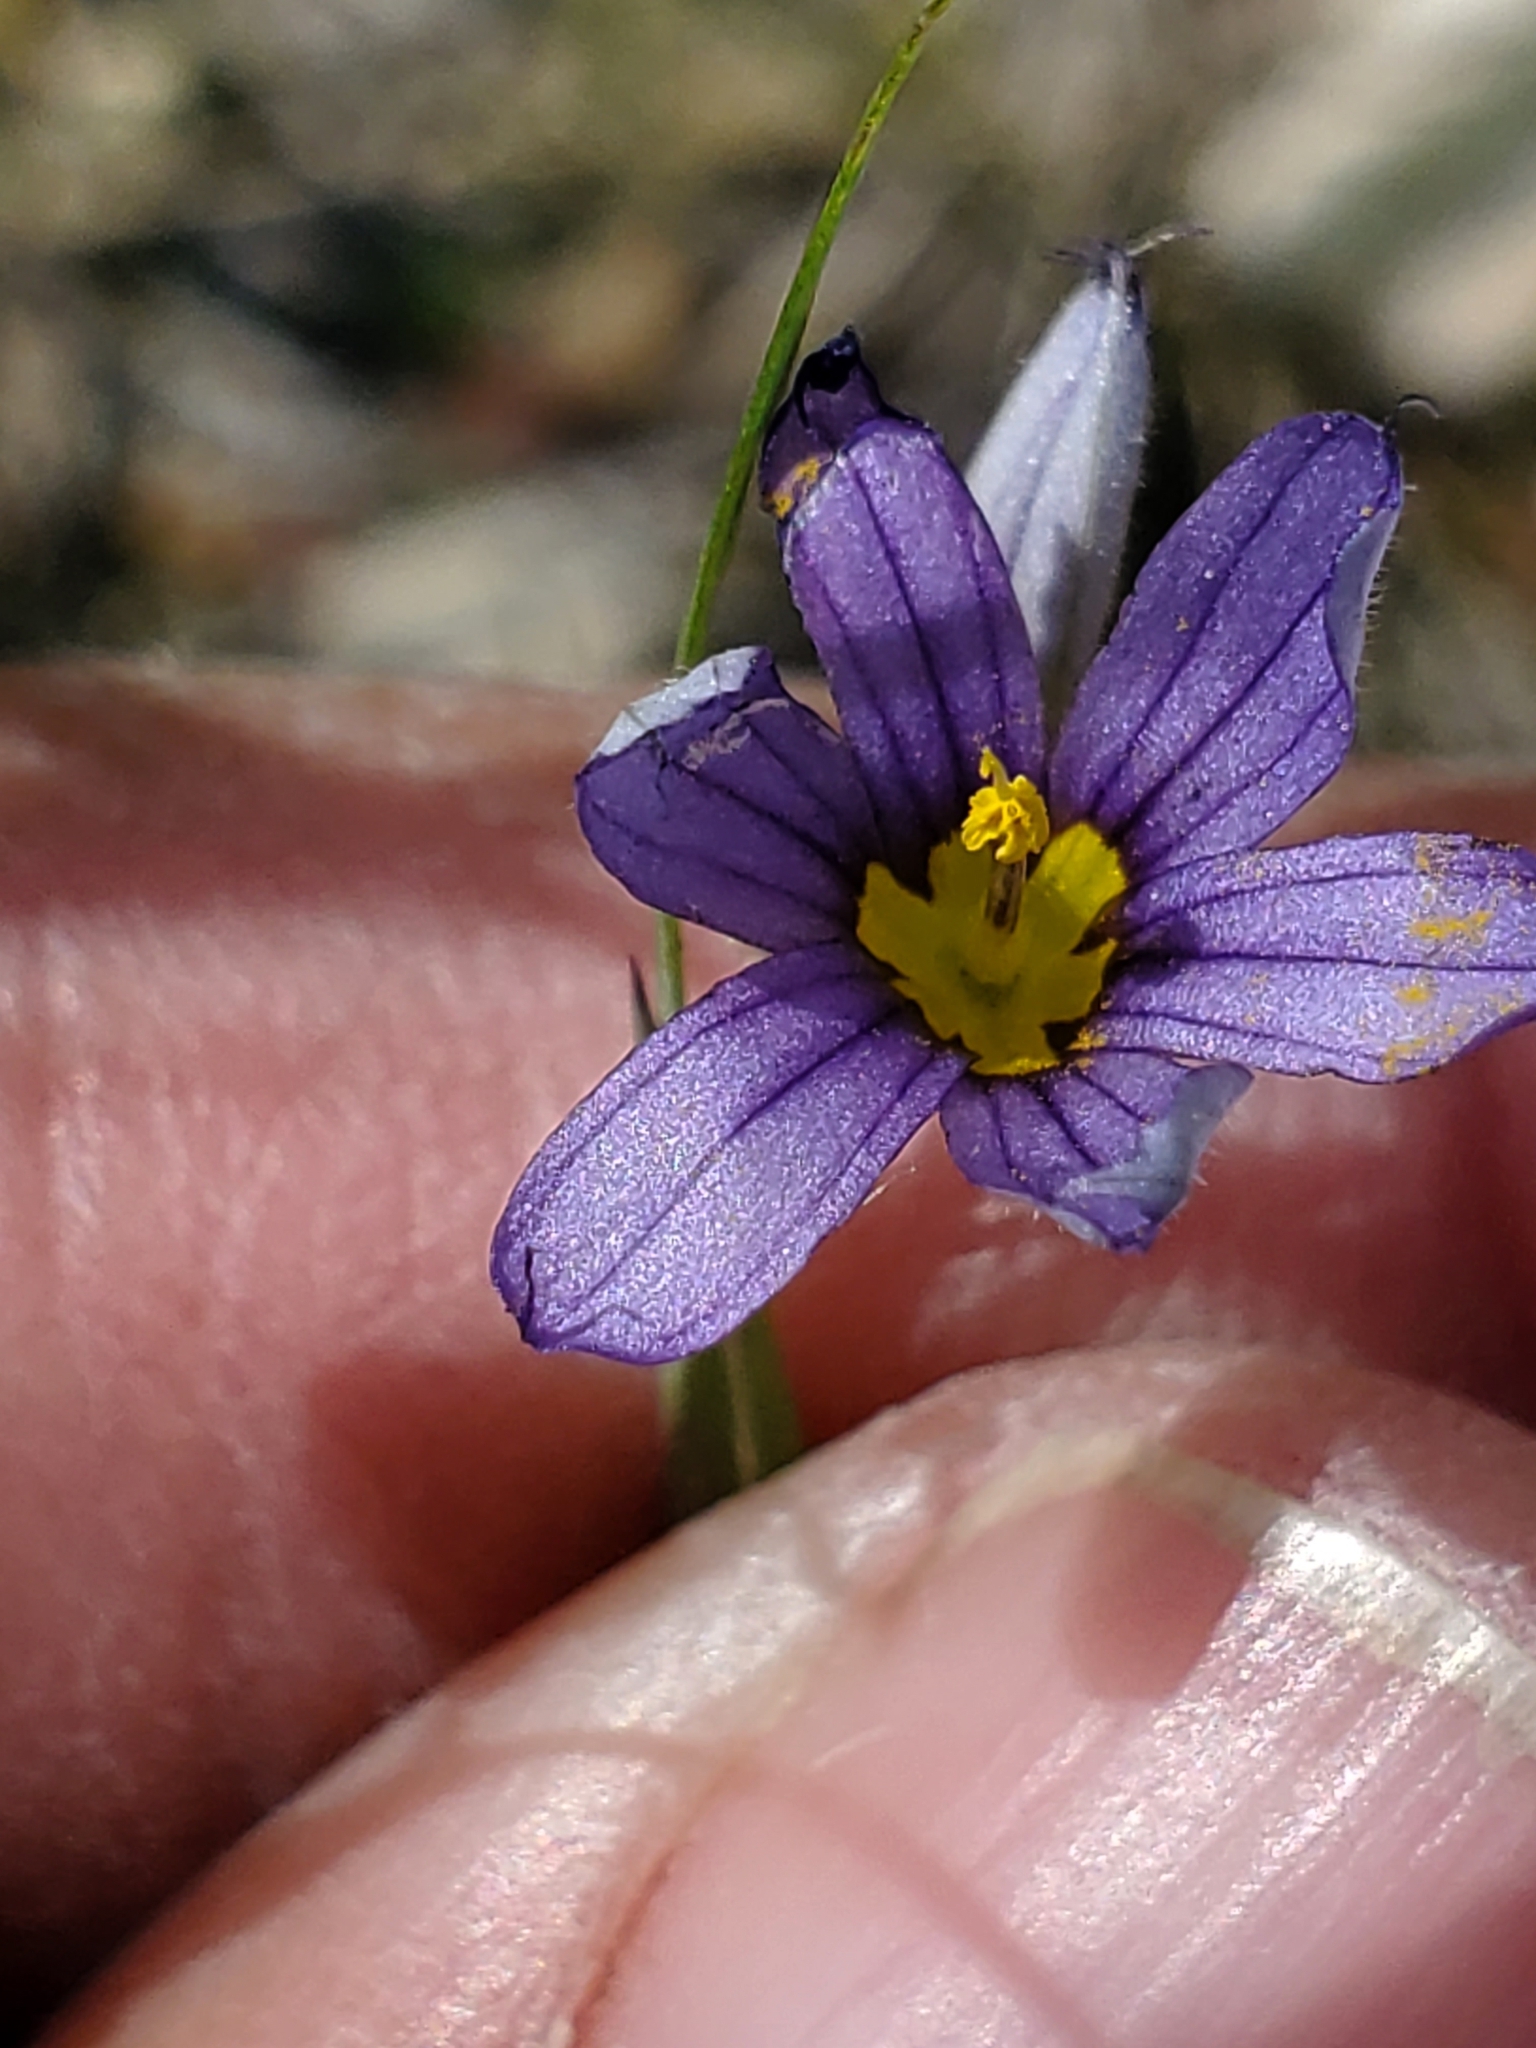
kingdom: Plantae
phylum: Tracheophyta
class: Liliopsida
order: Asparagales
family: Iridaceae
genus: Sisyrinchium
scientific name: Sisyrinchium montanum
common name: American blue-eyed-grass
